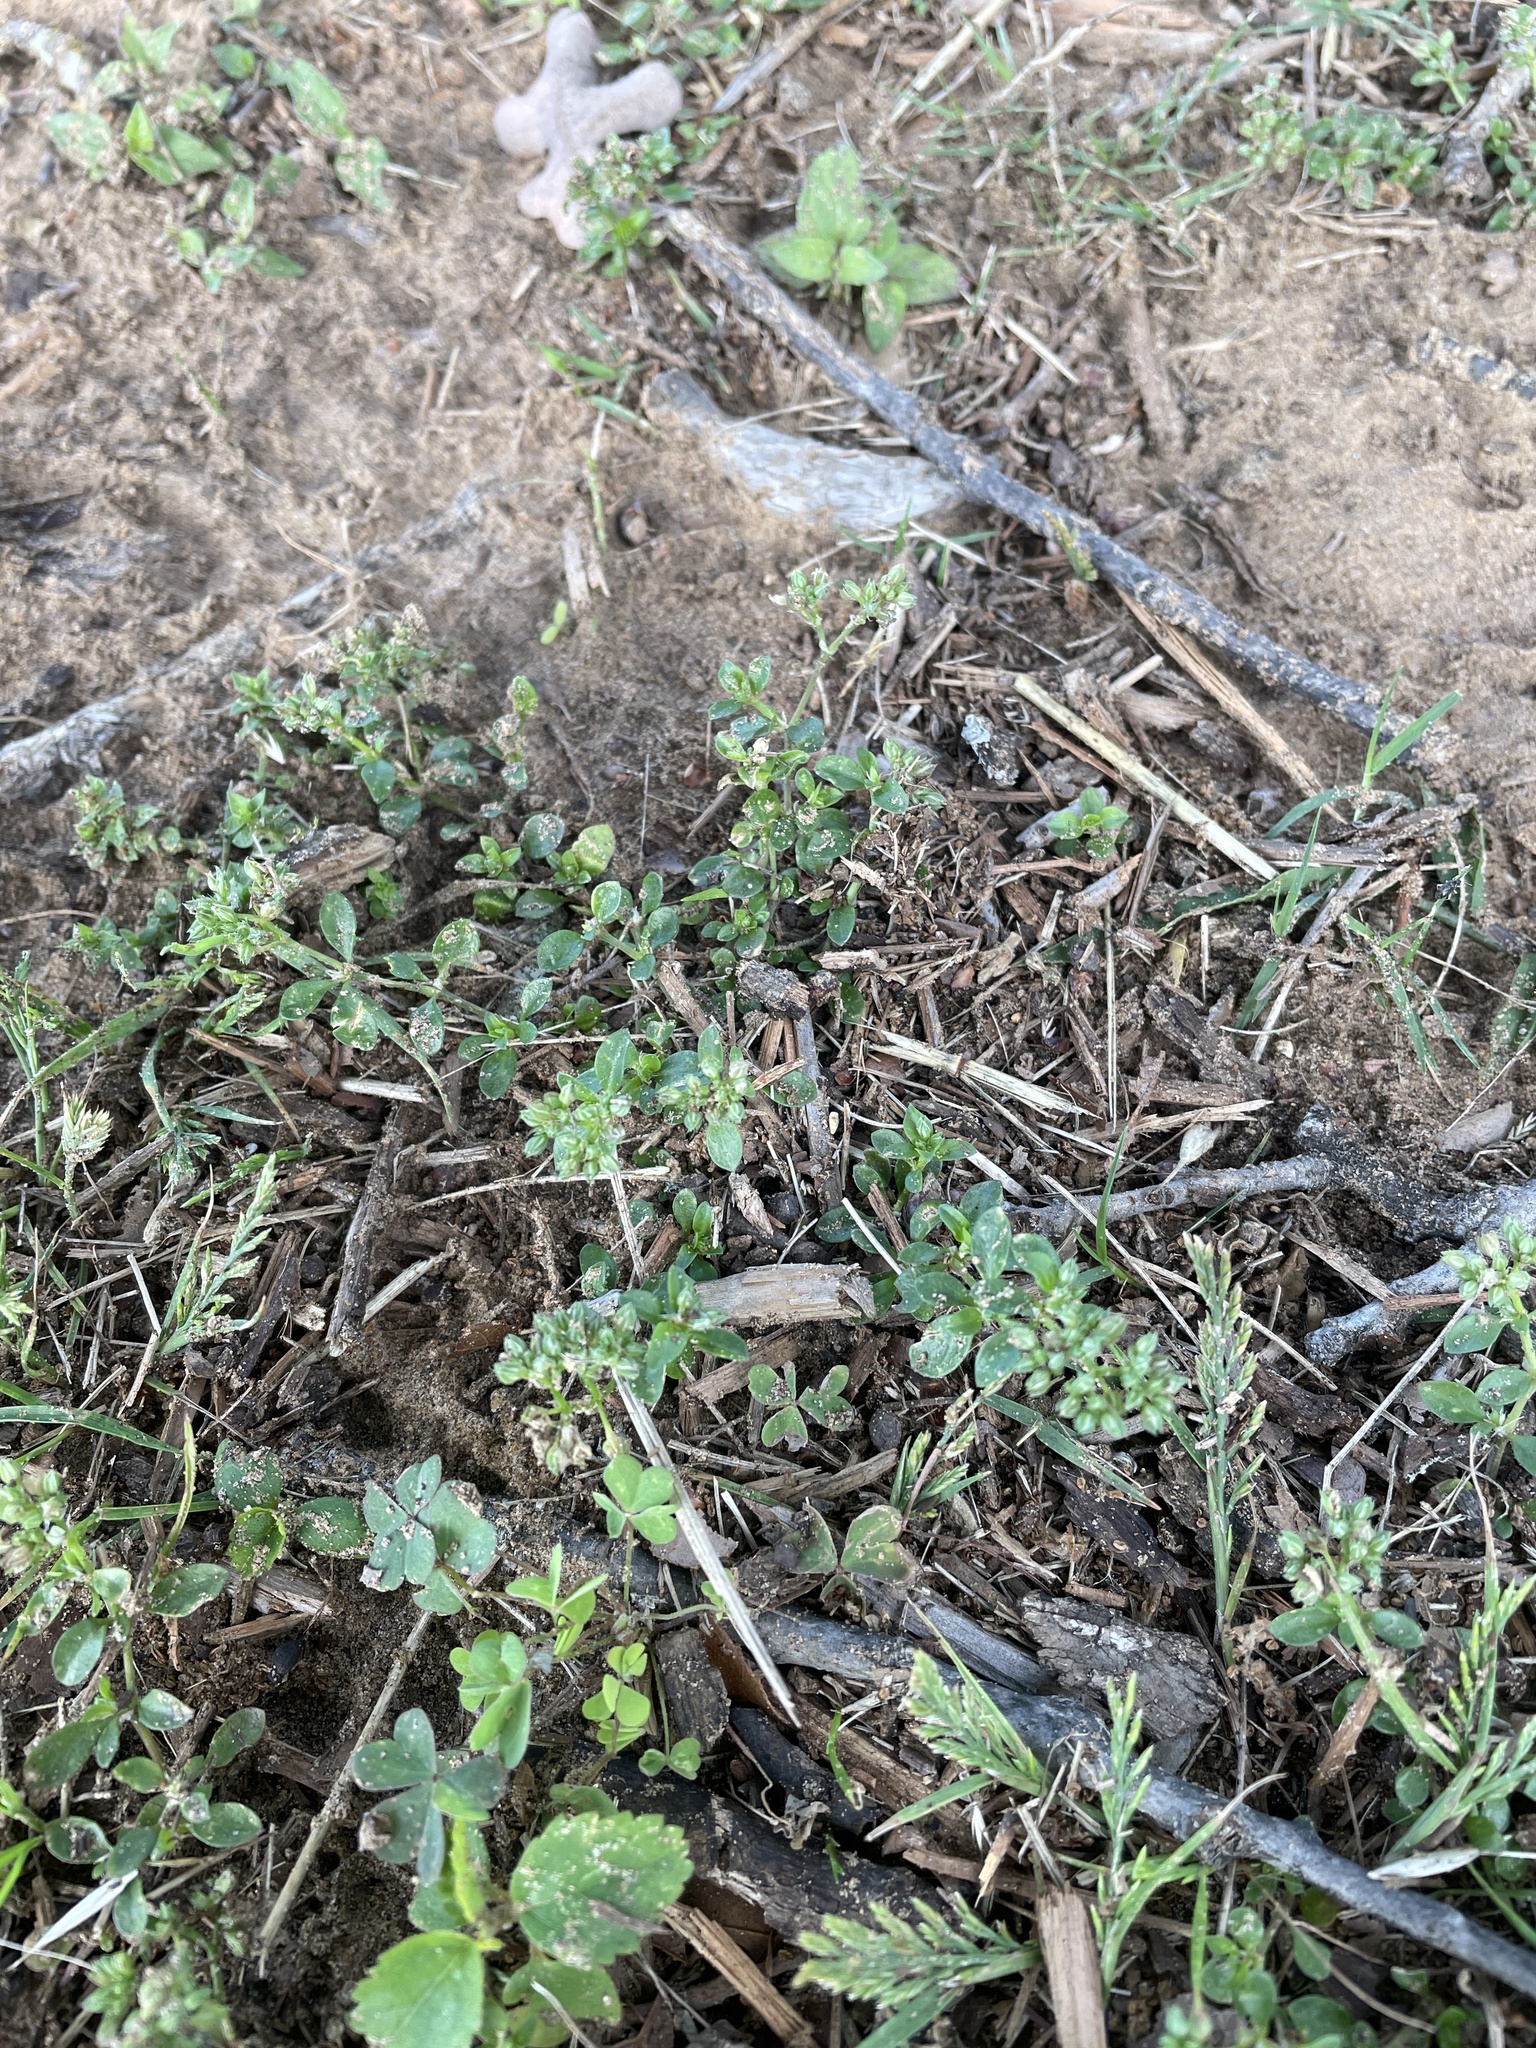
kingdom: Plantae
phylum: Tracheophyta
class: Magnoliopsida
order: Caryophyllales
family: Caryophyllaceae
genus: Polycarpon
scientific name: Polycarpon tetraphyllum
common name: Four-leaved all-seed
